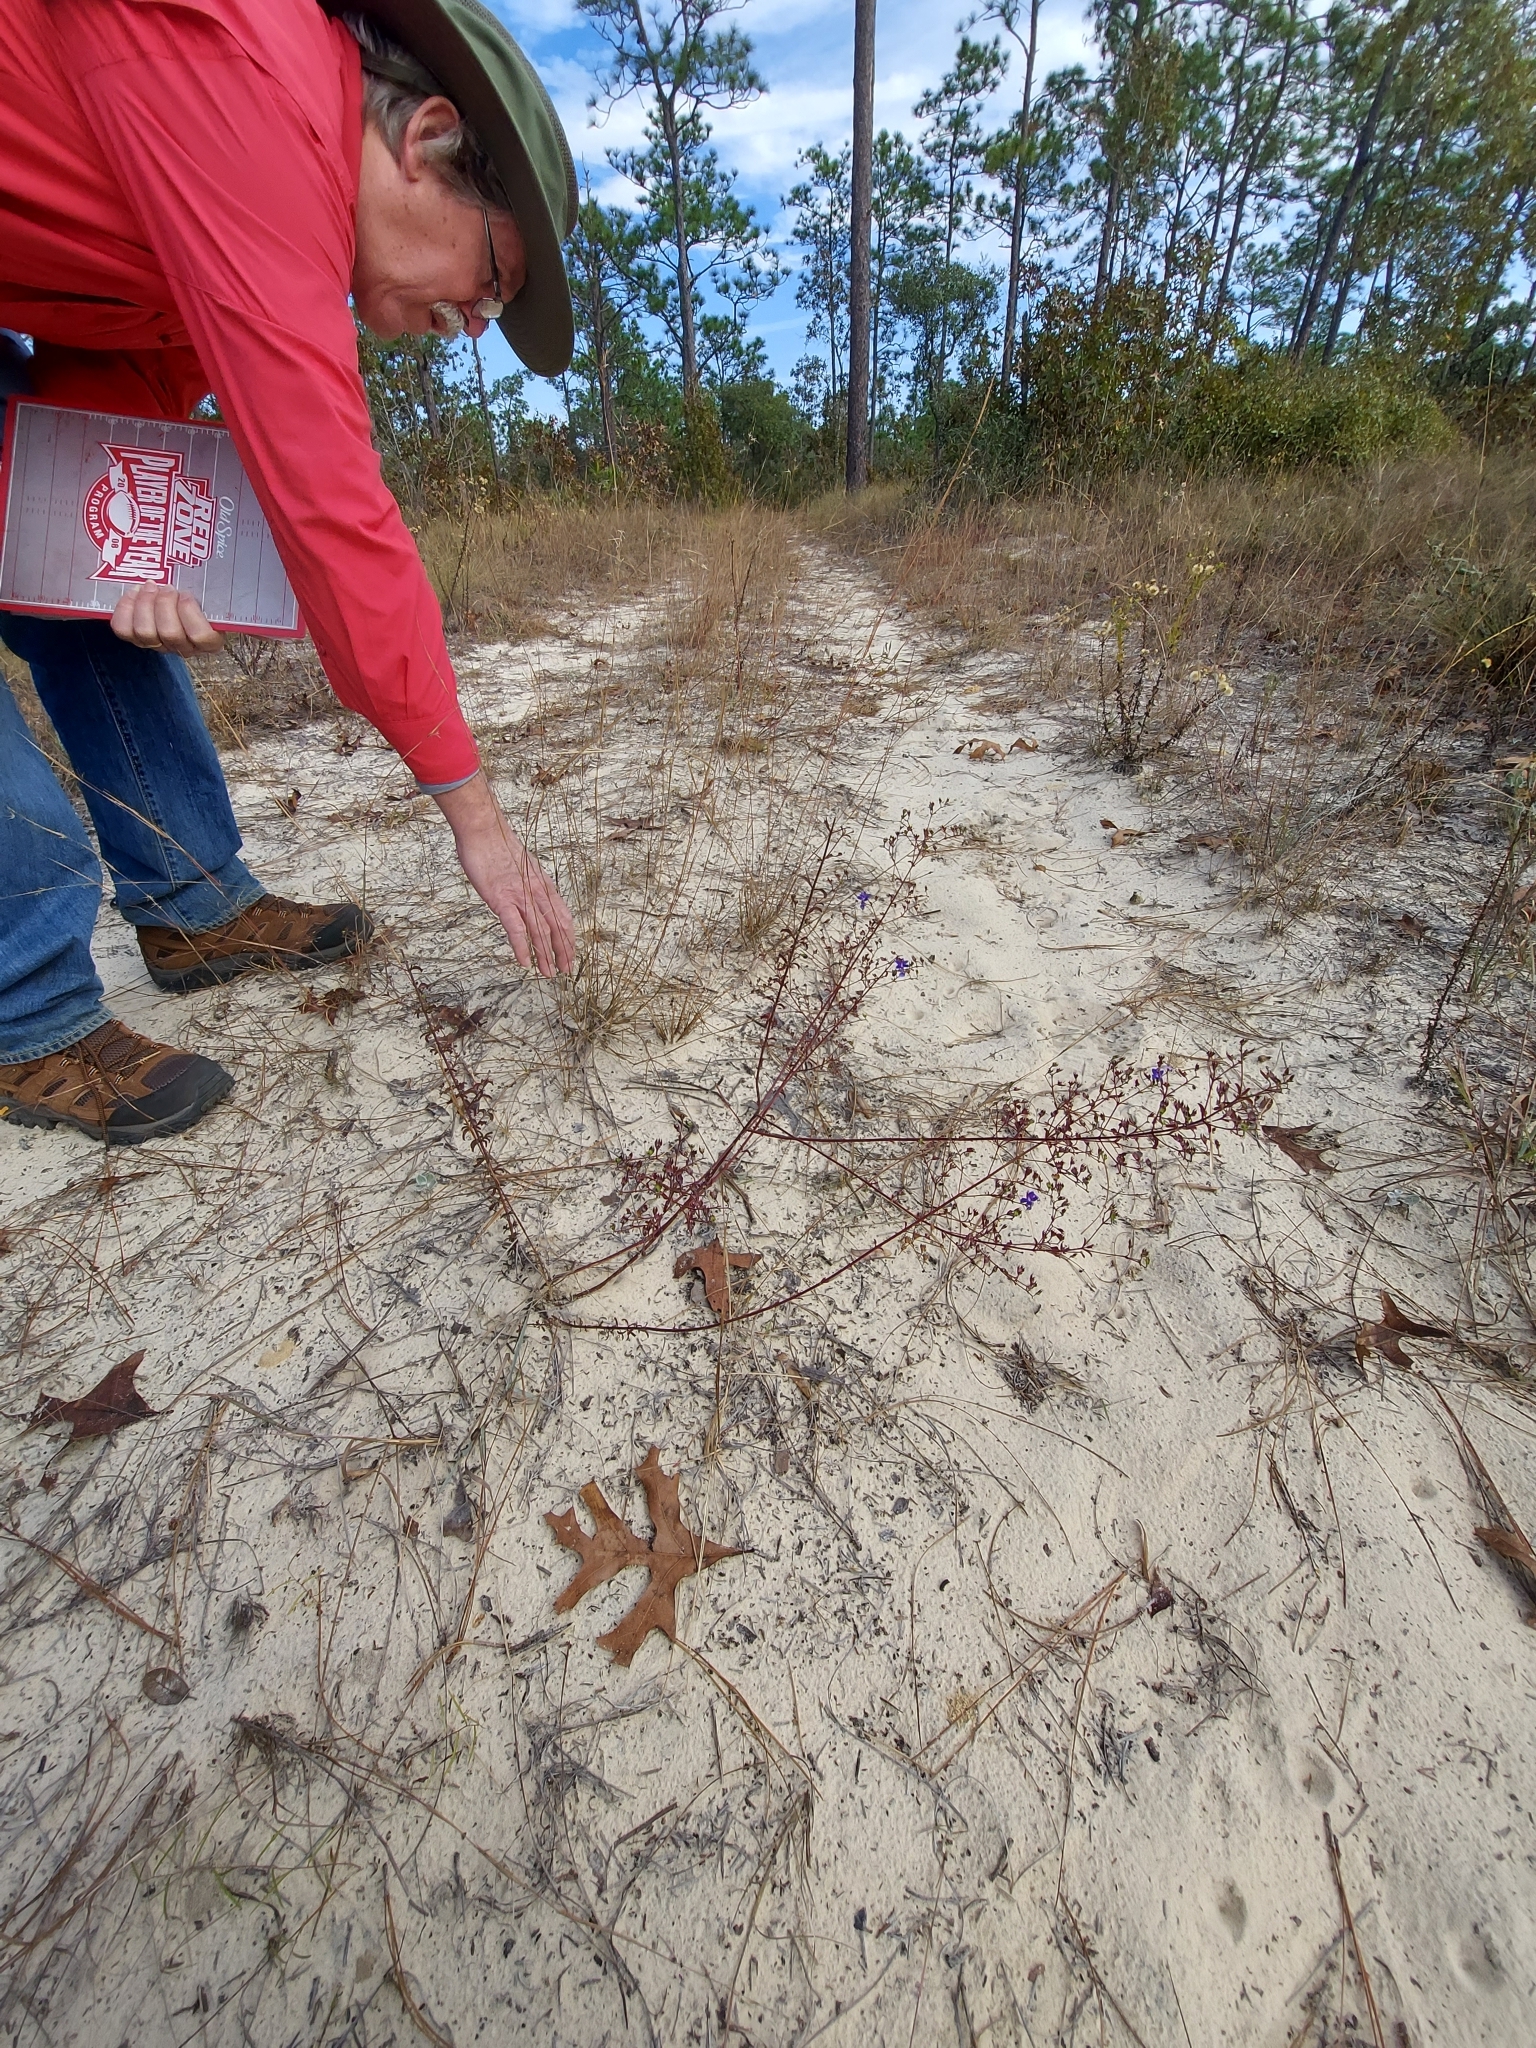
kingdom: Plantae
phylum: Tracheophyta
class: Magnoliopsida
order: Lamiales
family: Lamiaceae
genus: Trichostema
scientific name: Trichostema microphyllum
